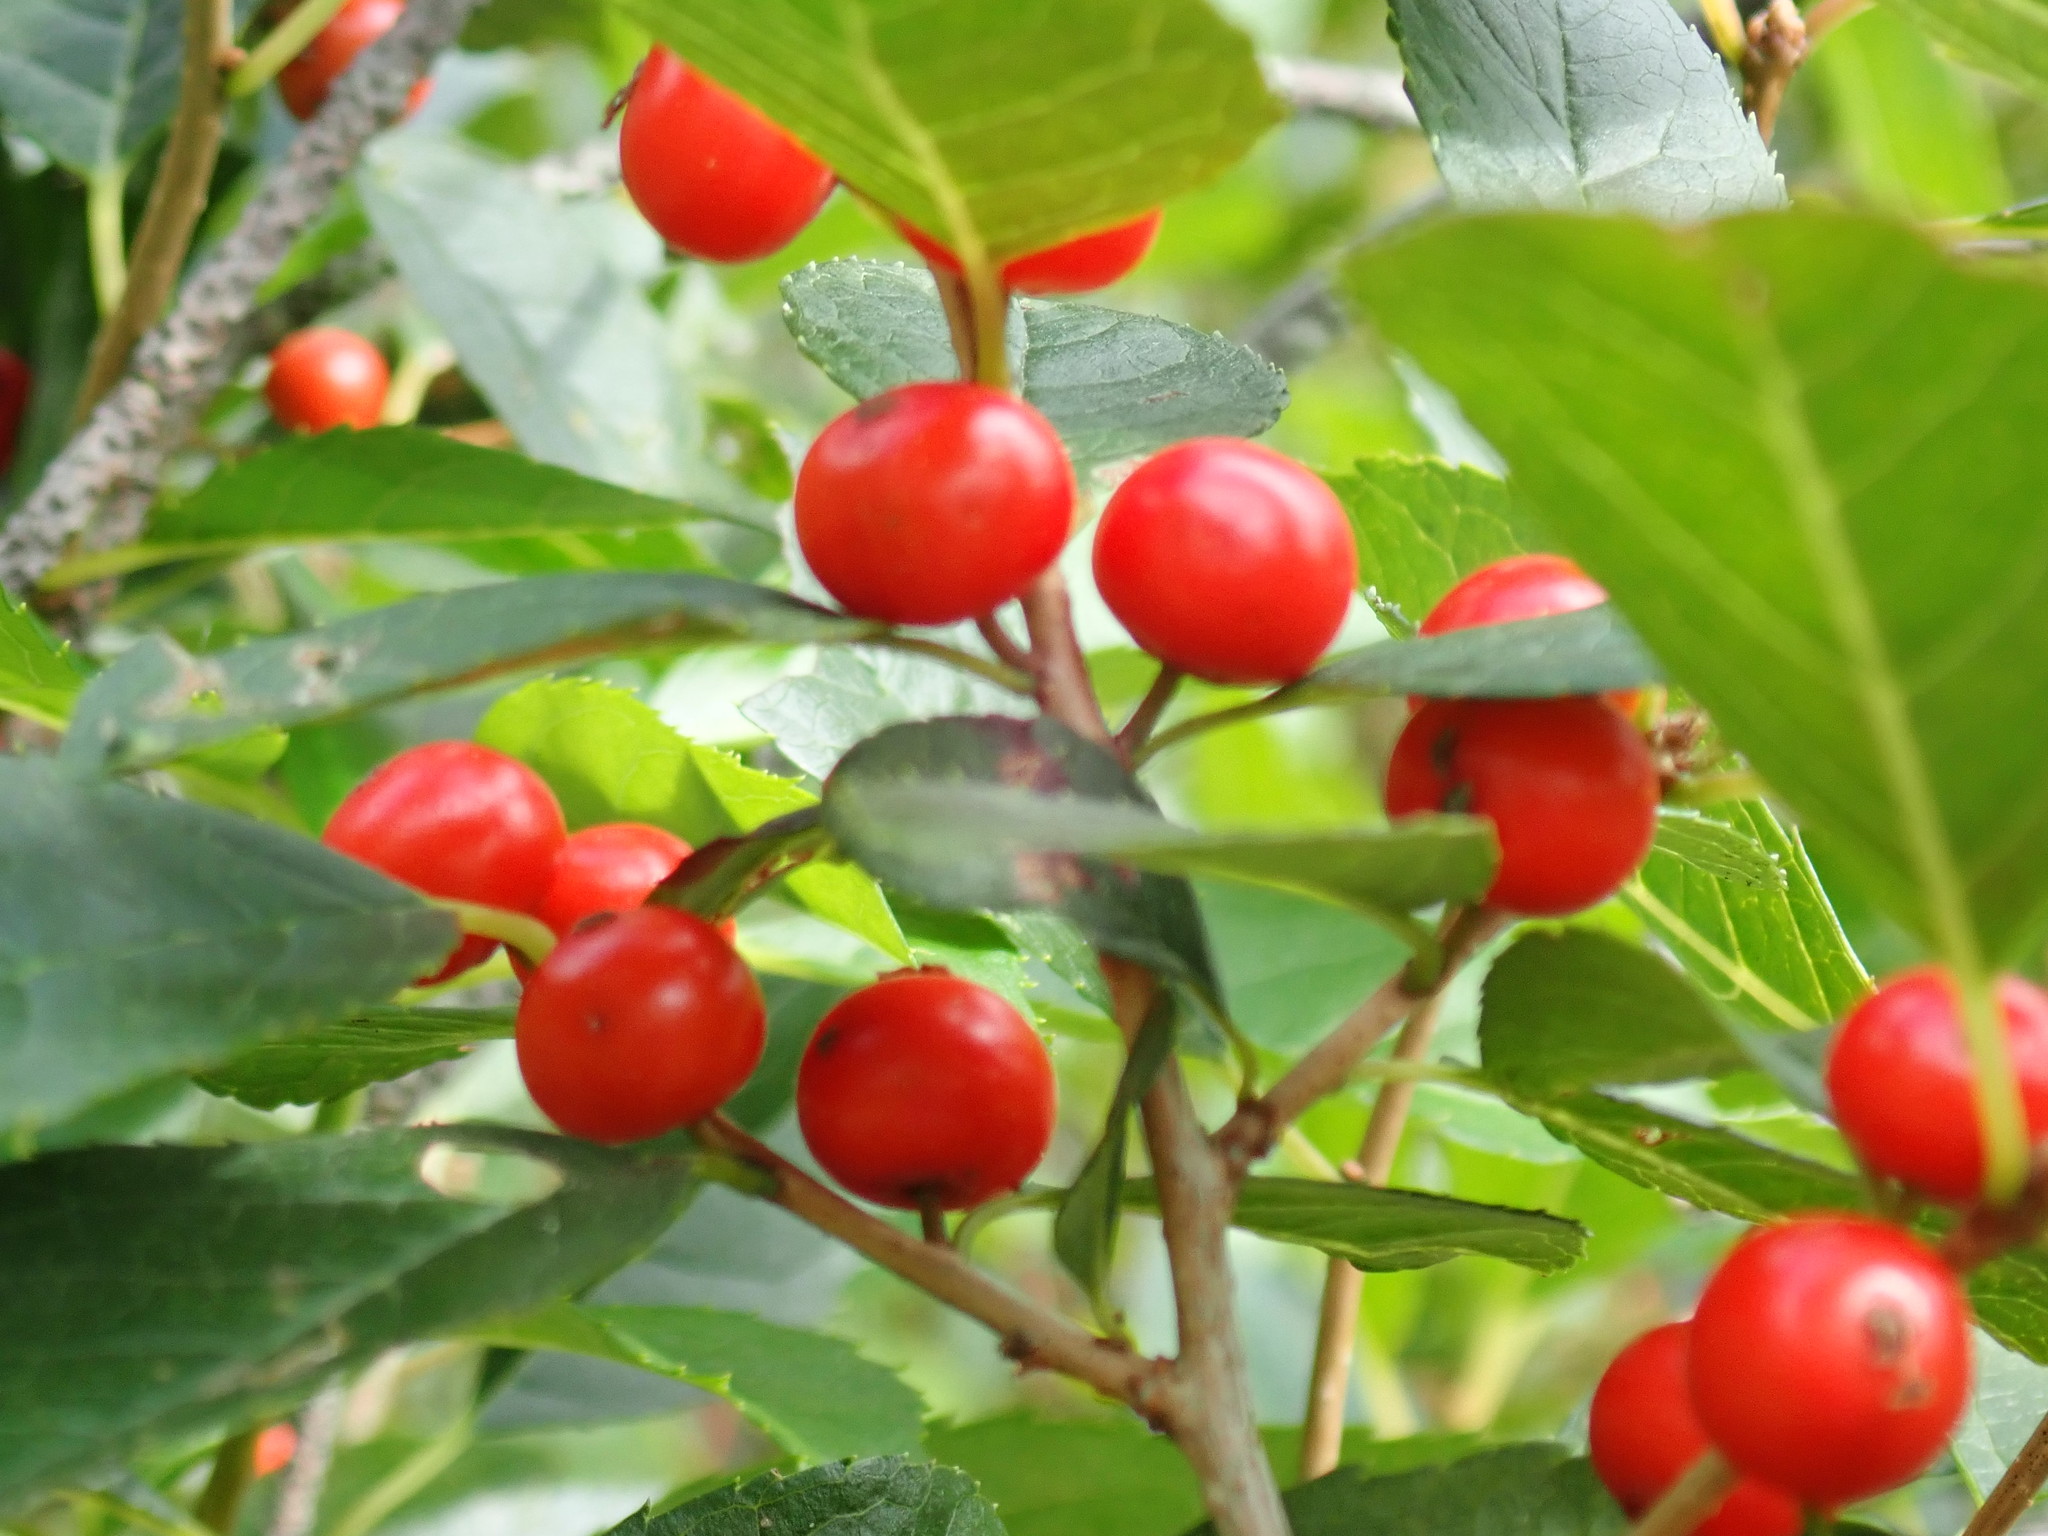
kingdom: Plantae
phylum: Tracheophyta
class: Magnoliopsida
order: Aquifoliales
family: Aquifoliaceae
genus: Ilex
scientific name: Ilex verticillata
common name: Virginia winterberry
